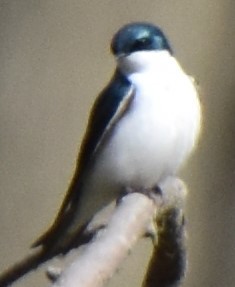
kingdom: Animalia
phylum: Chordata
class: Aves
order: Passeriformes
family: Hirundinidae
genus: Tachycineta
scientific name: Tachycineta bicolor
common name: Tree swallow
